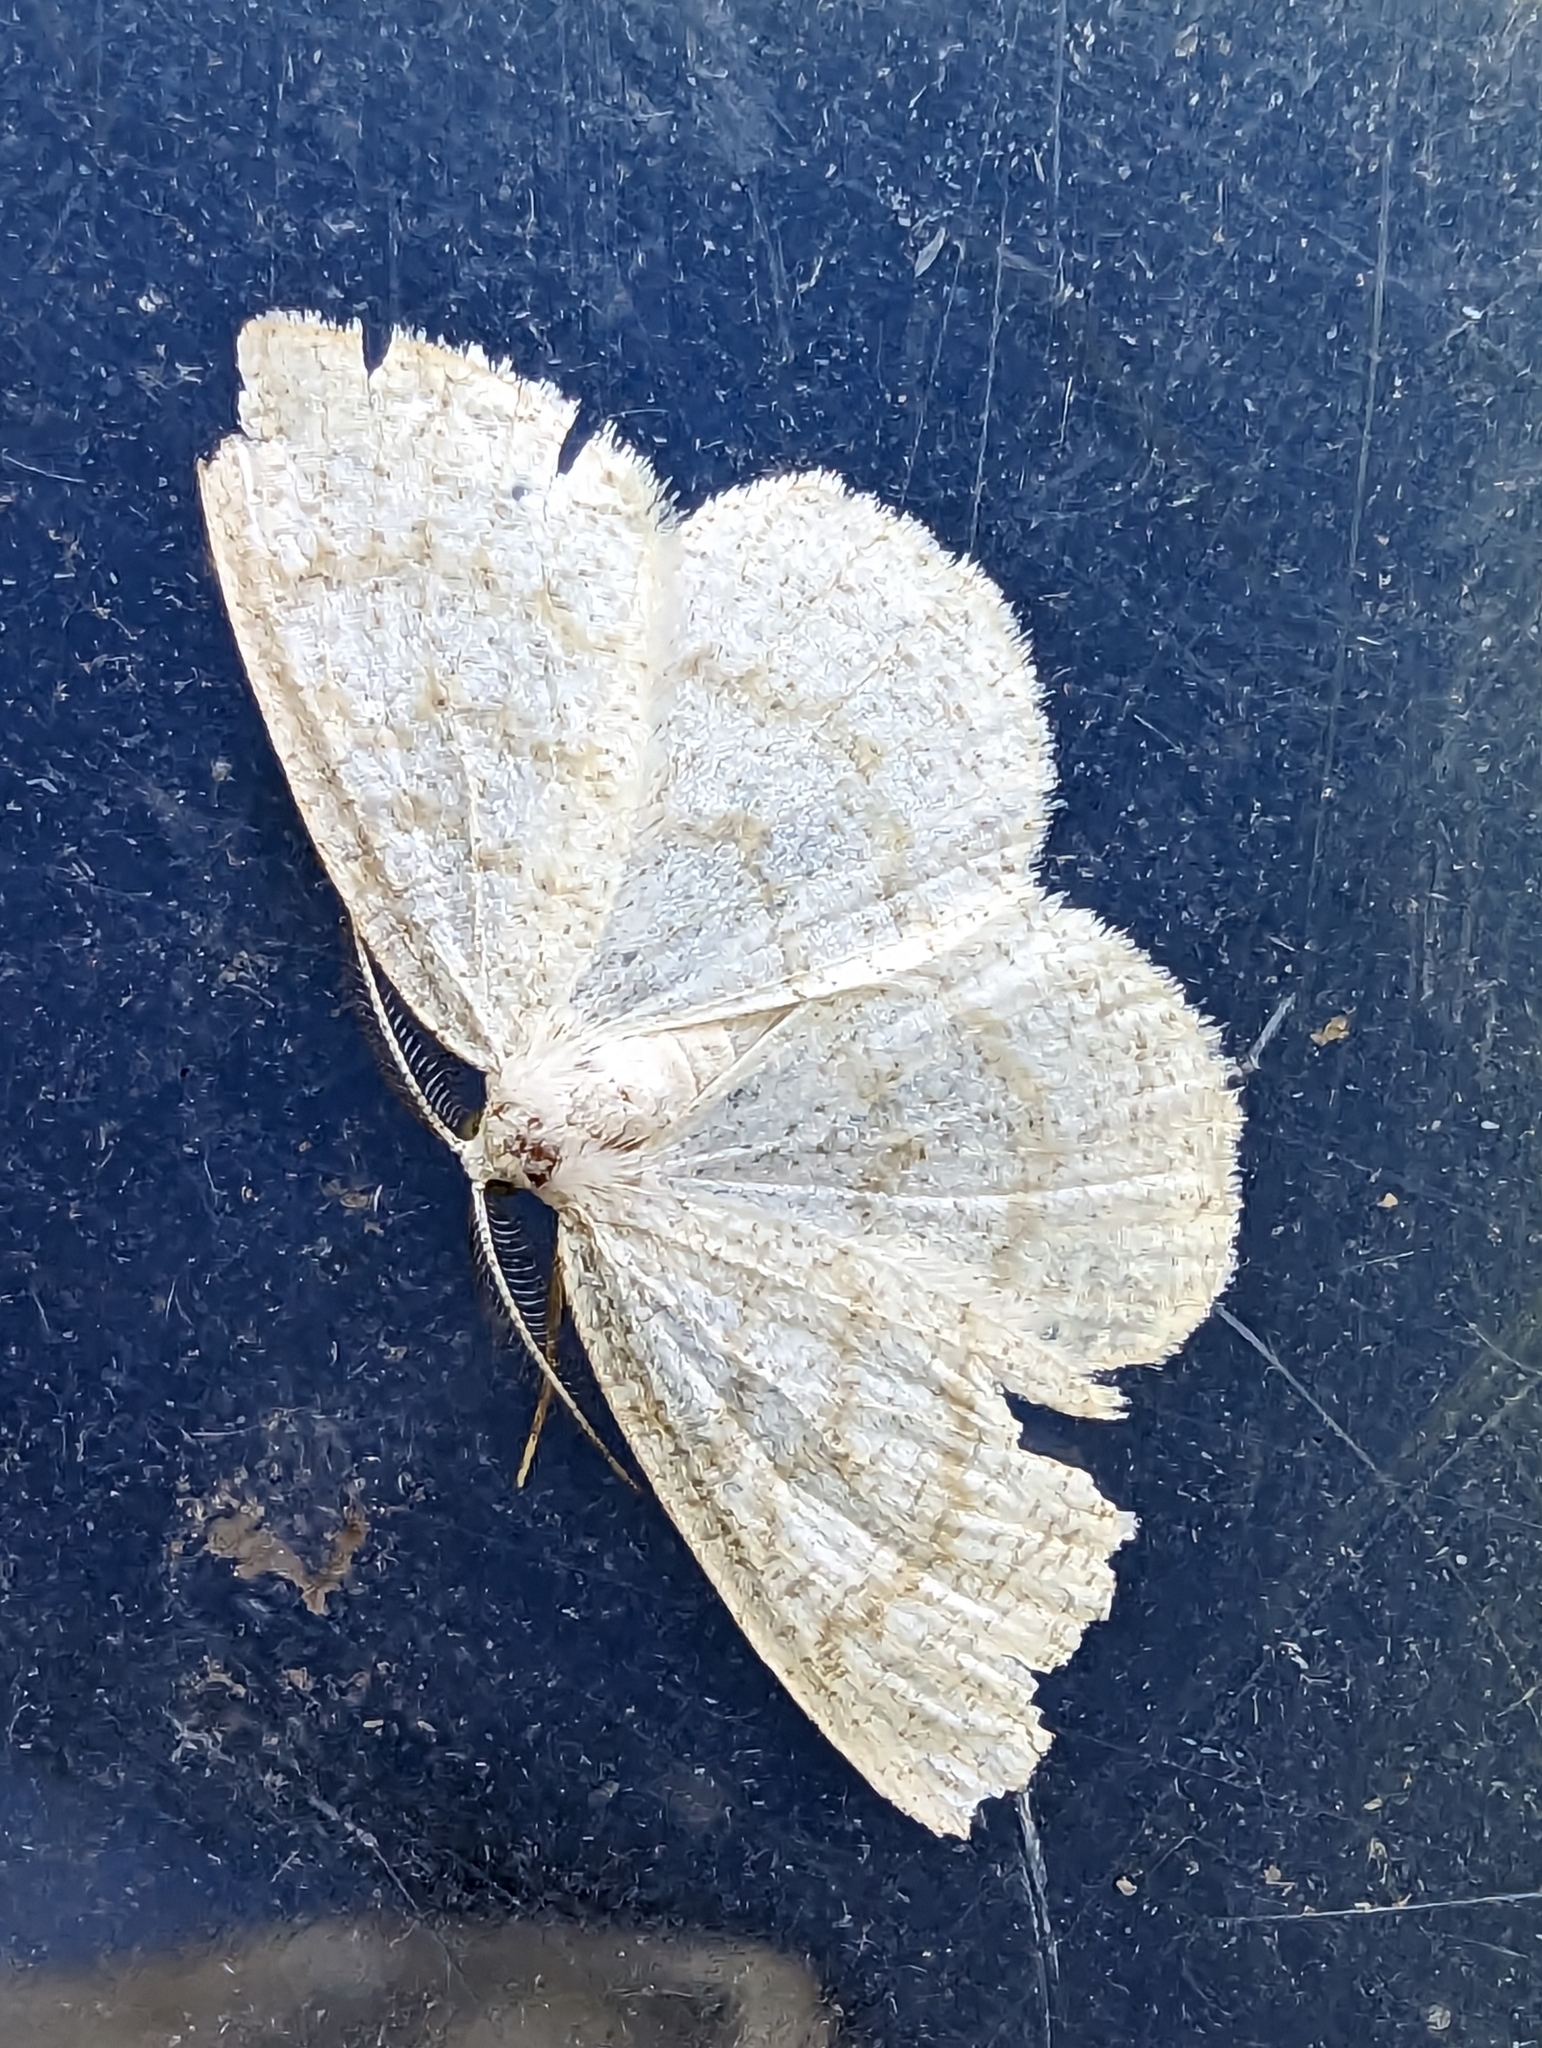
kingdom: Animalia
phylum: Arthropoda
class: Insecta
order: Lepidoptera
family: Geometridae
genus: Cabera
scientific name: Cabera exanthemata
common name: Common wave
